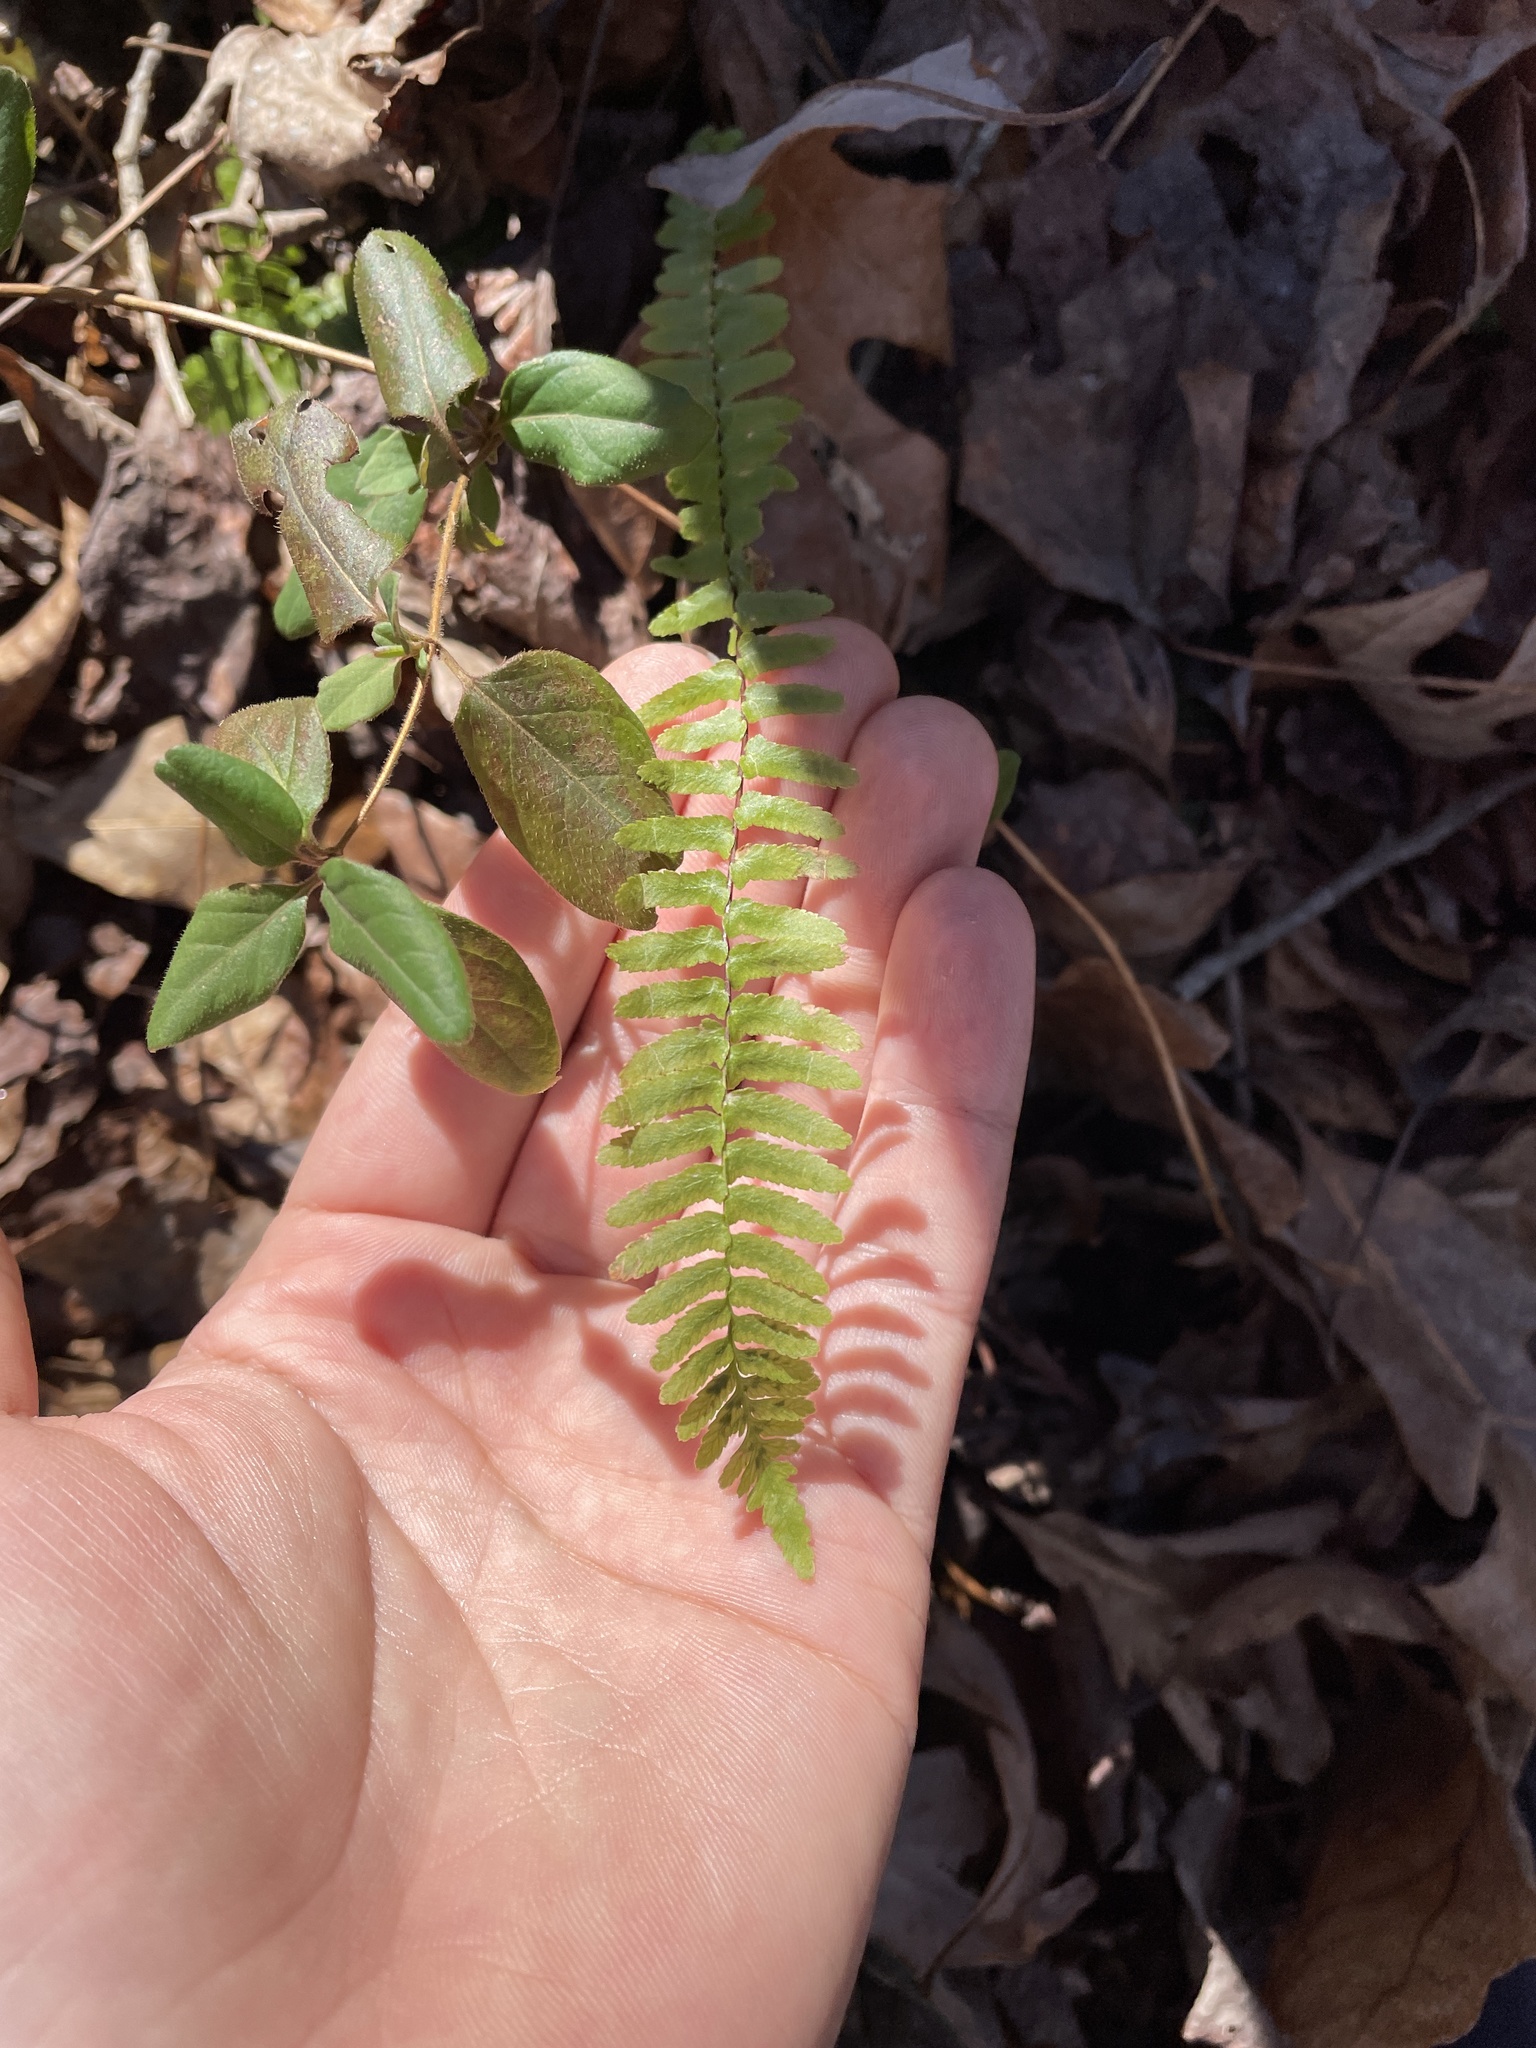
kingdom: Plantae
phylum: Tracheophyta
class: Polypodiopsida
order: Polypodiales
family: Aspleniaceae
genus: Asplenium
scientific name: Asplenium platyneuron
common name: Ebony spleenwort
